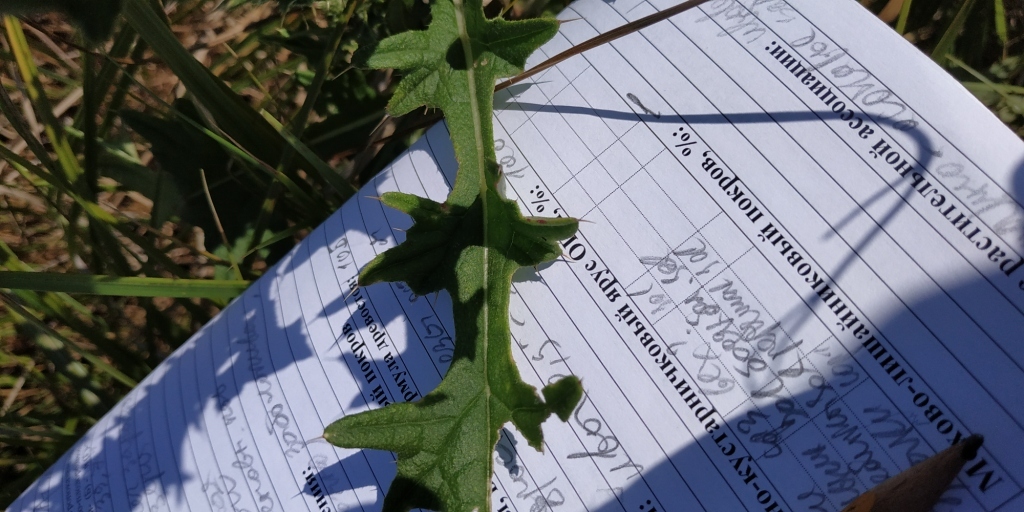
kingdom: Plantae
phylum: Tracheophyta
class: Magnoliopsida
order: Asterales
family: Asteraceae
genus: Cirsium
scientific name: Cirsium vulgare
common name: Bull thistle
